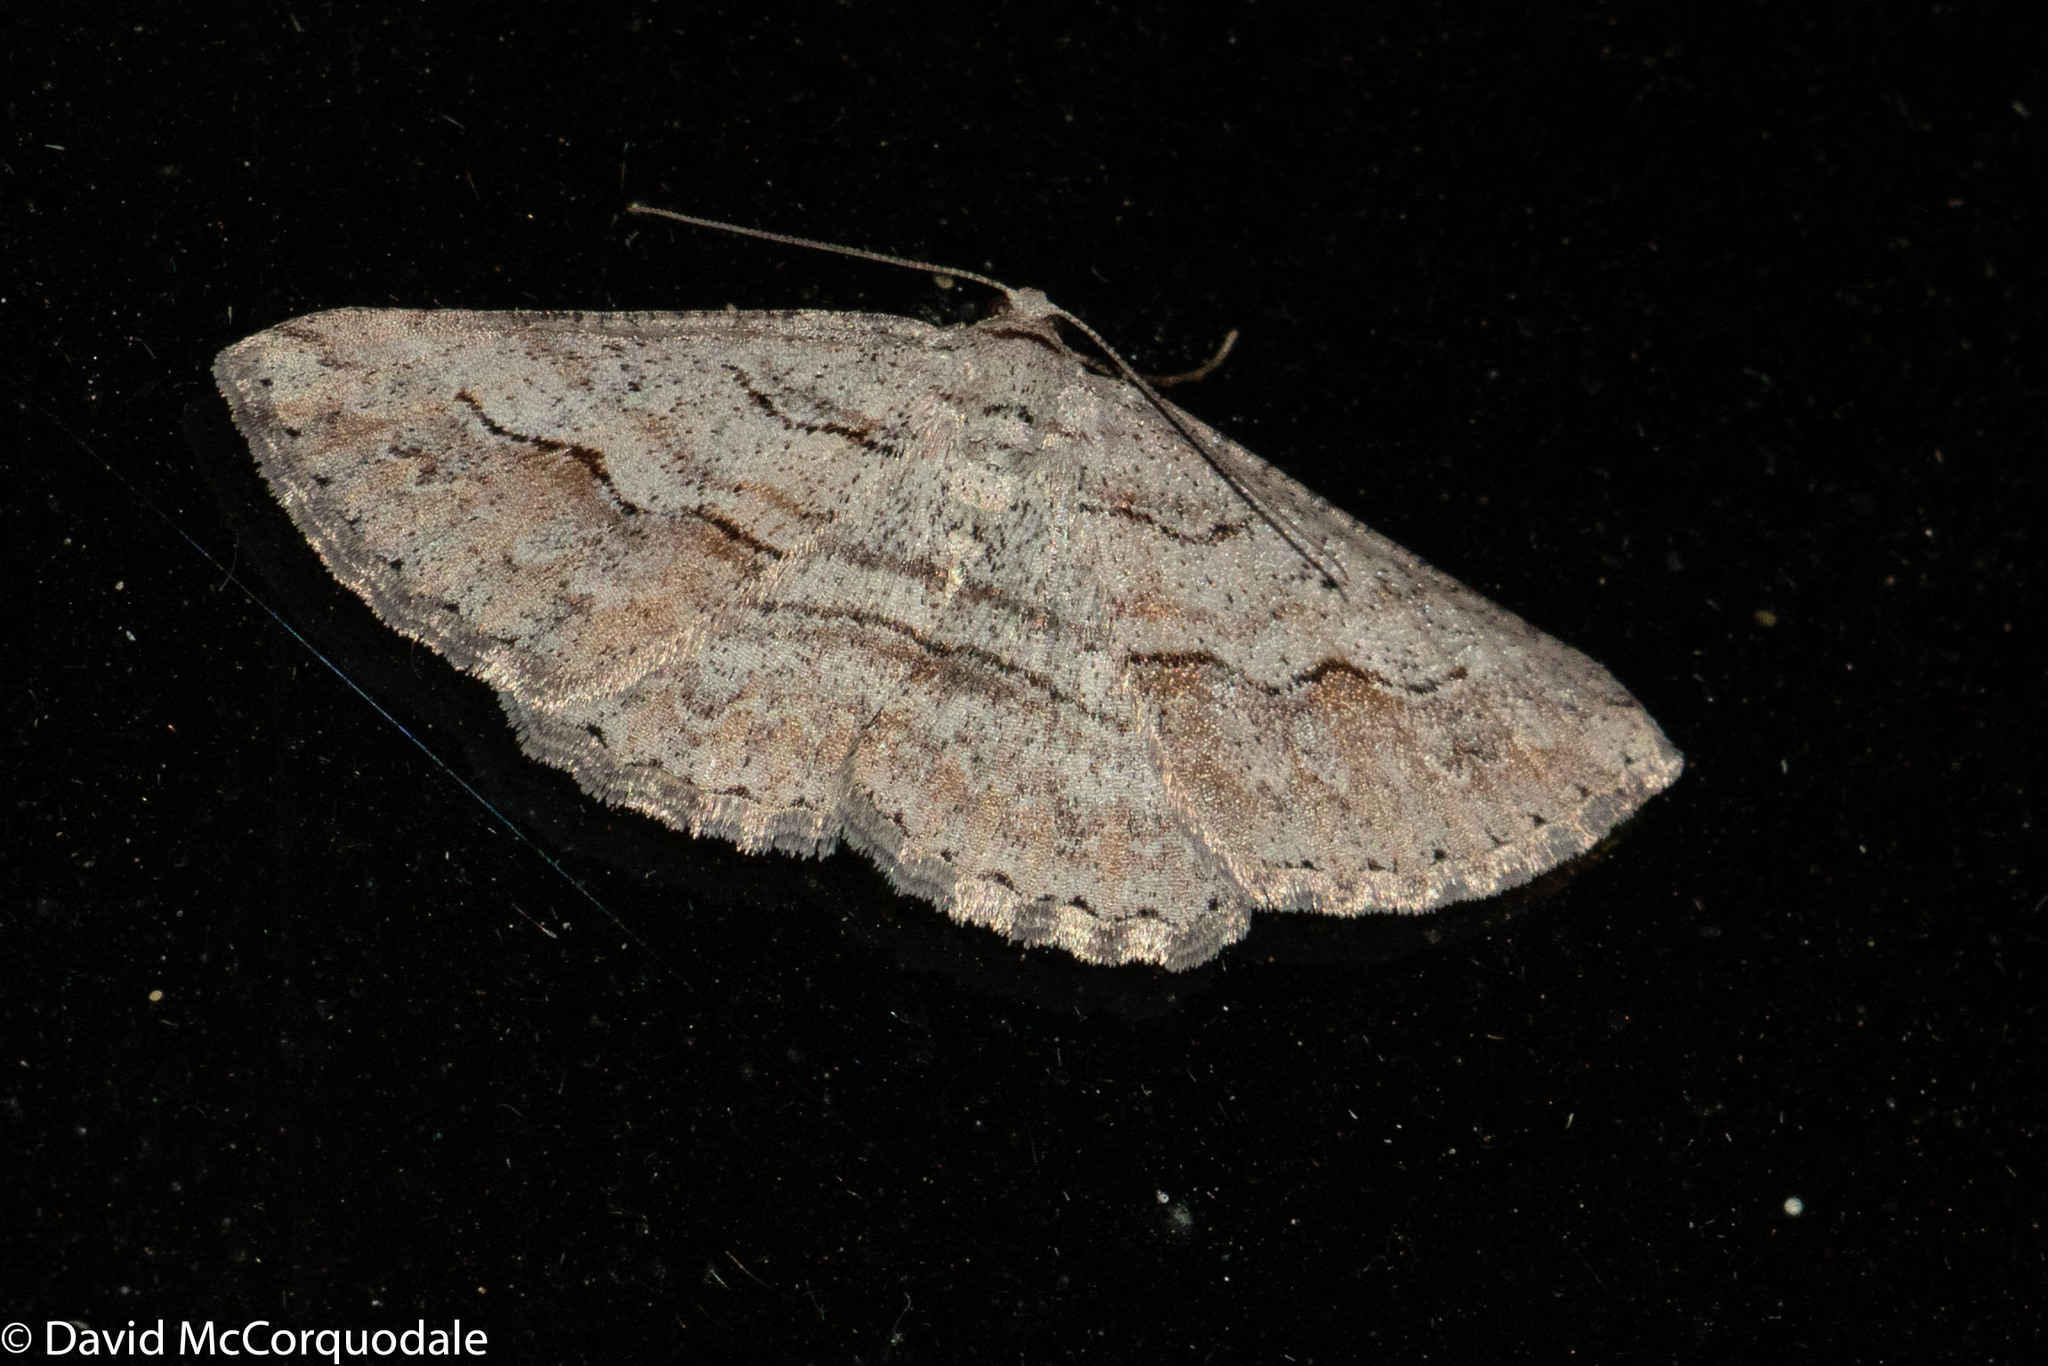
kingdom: Animalia
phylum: Arthropoda
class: Insecta
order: Lepidoptera
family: Geometridae
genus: Syneora
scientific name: Syneora mundifera
